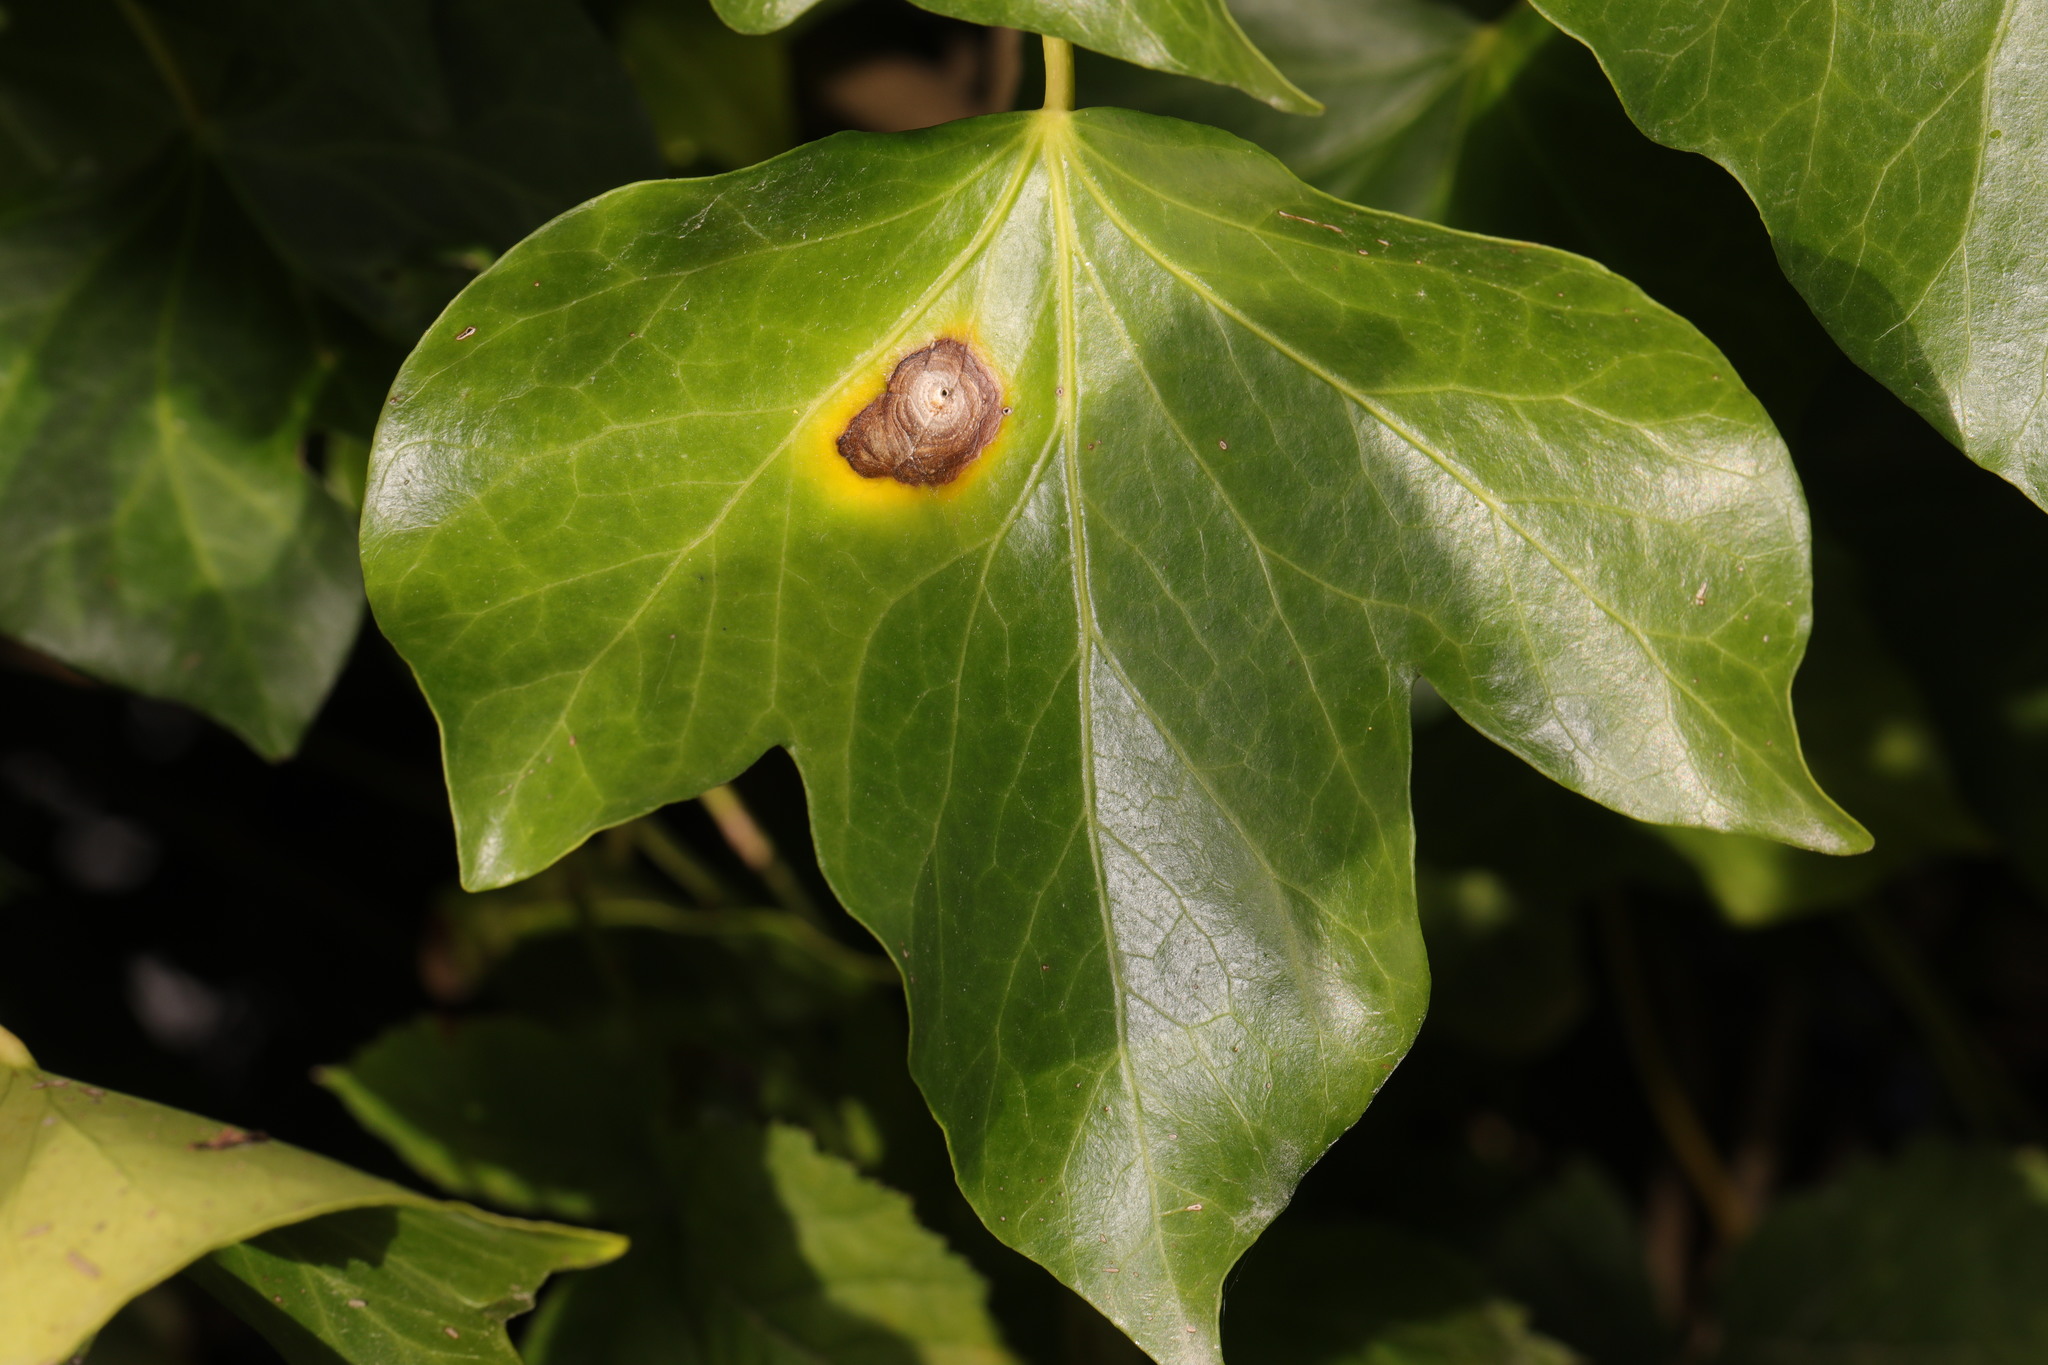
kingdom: Plantae
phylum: Tracheophyta
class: Magnoliopsida
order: Apiales
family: Araliaceae
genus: Hedera
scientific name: Hedera helix
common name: Ivy
